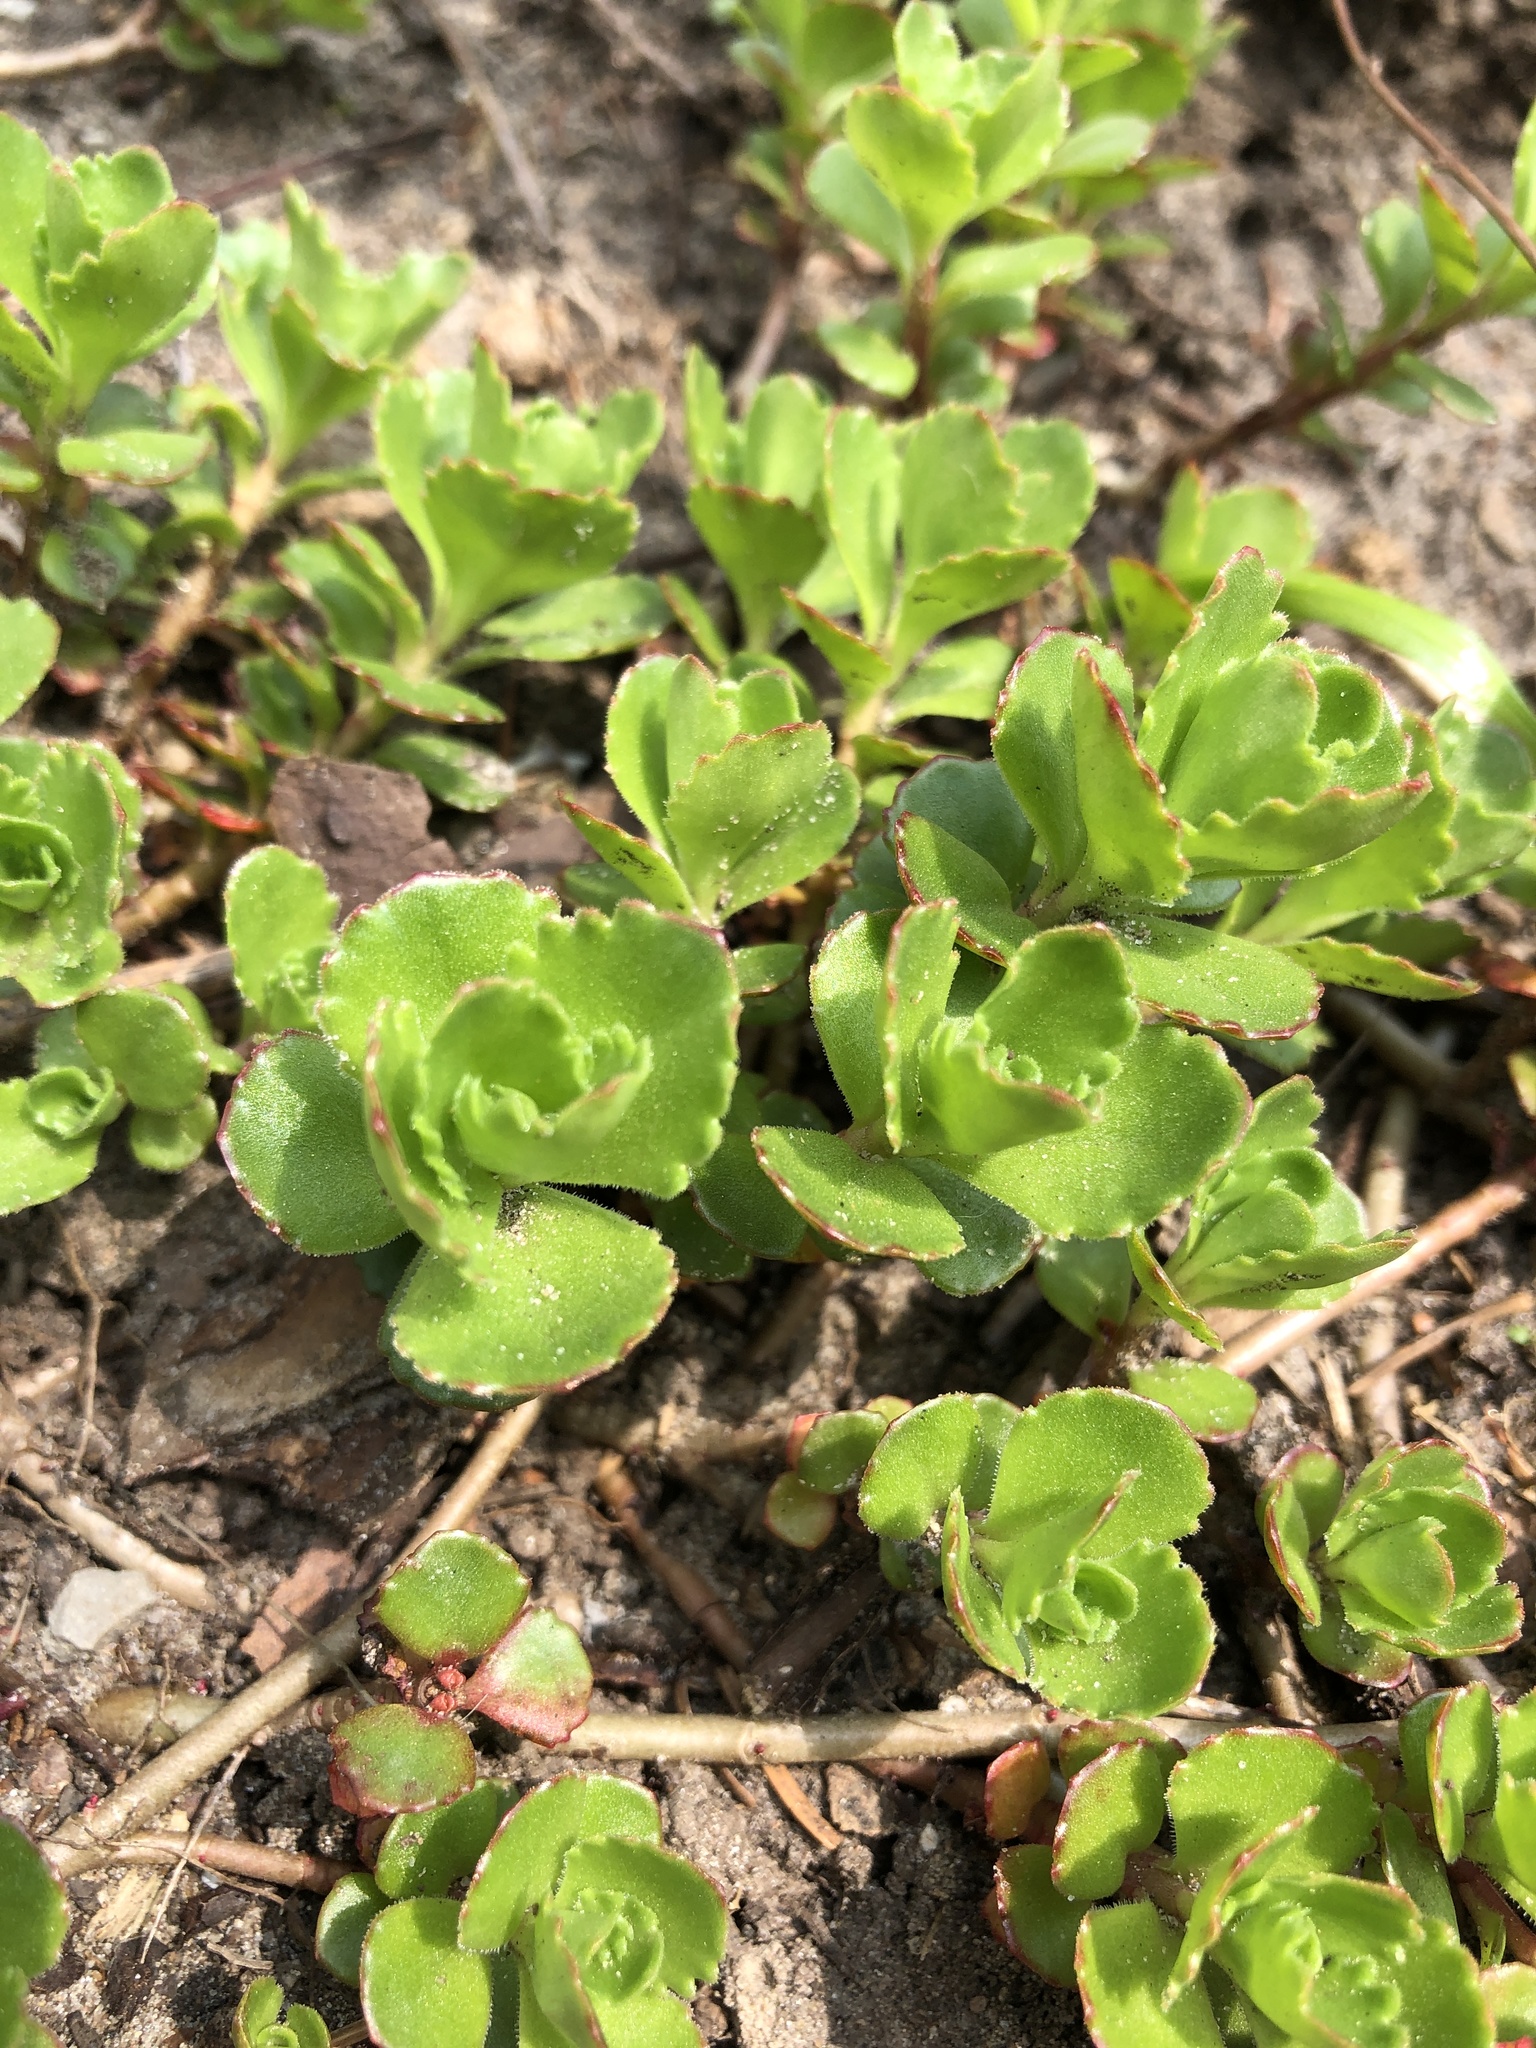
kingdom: Plantae
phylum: Tracheophyta
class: Magnoliopsida
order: Saxifragales
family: Crassulaceae
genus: Phedimus
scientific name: Phedimus spurius
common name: Caucasian stonecrop
